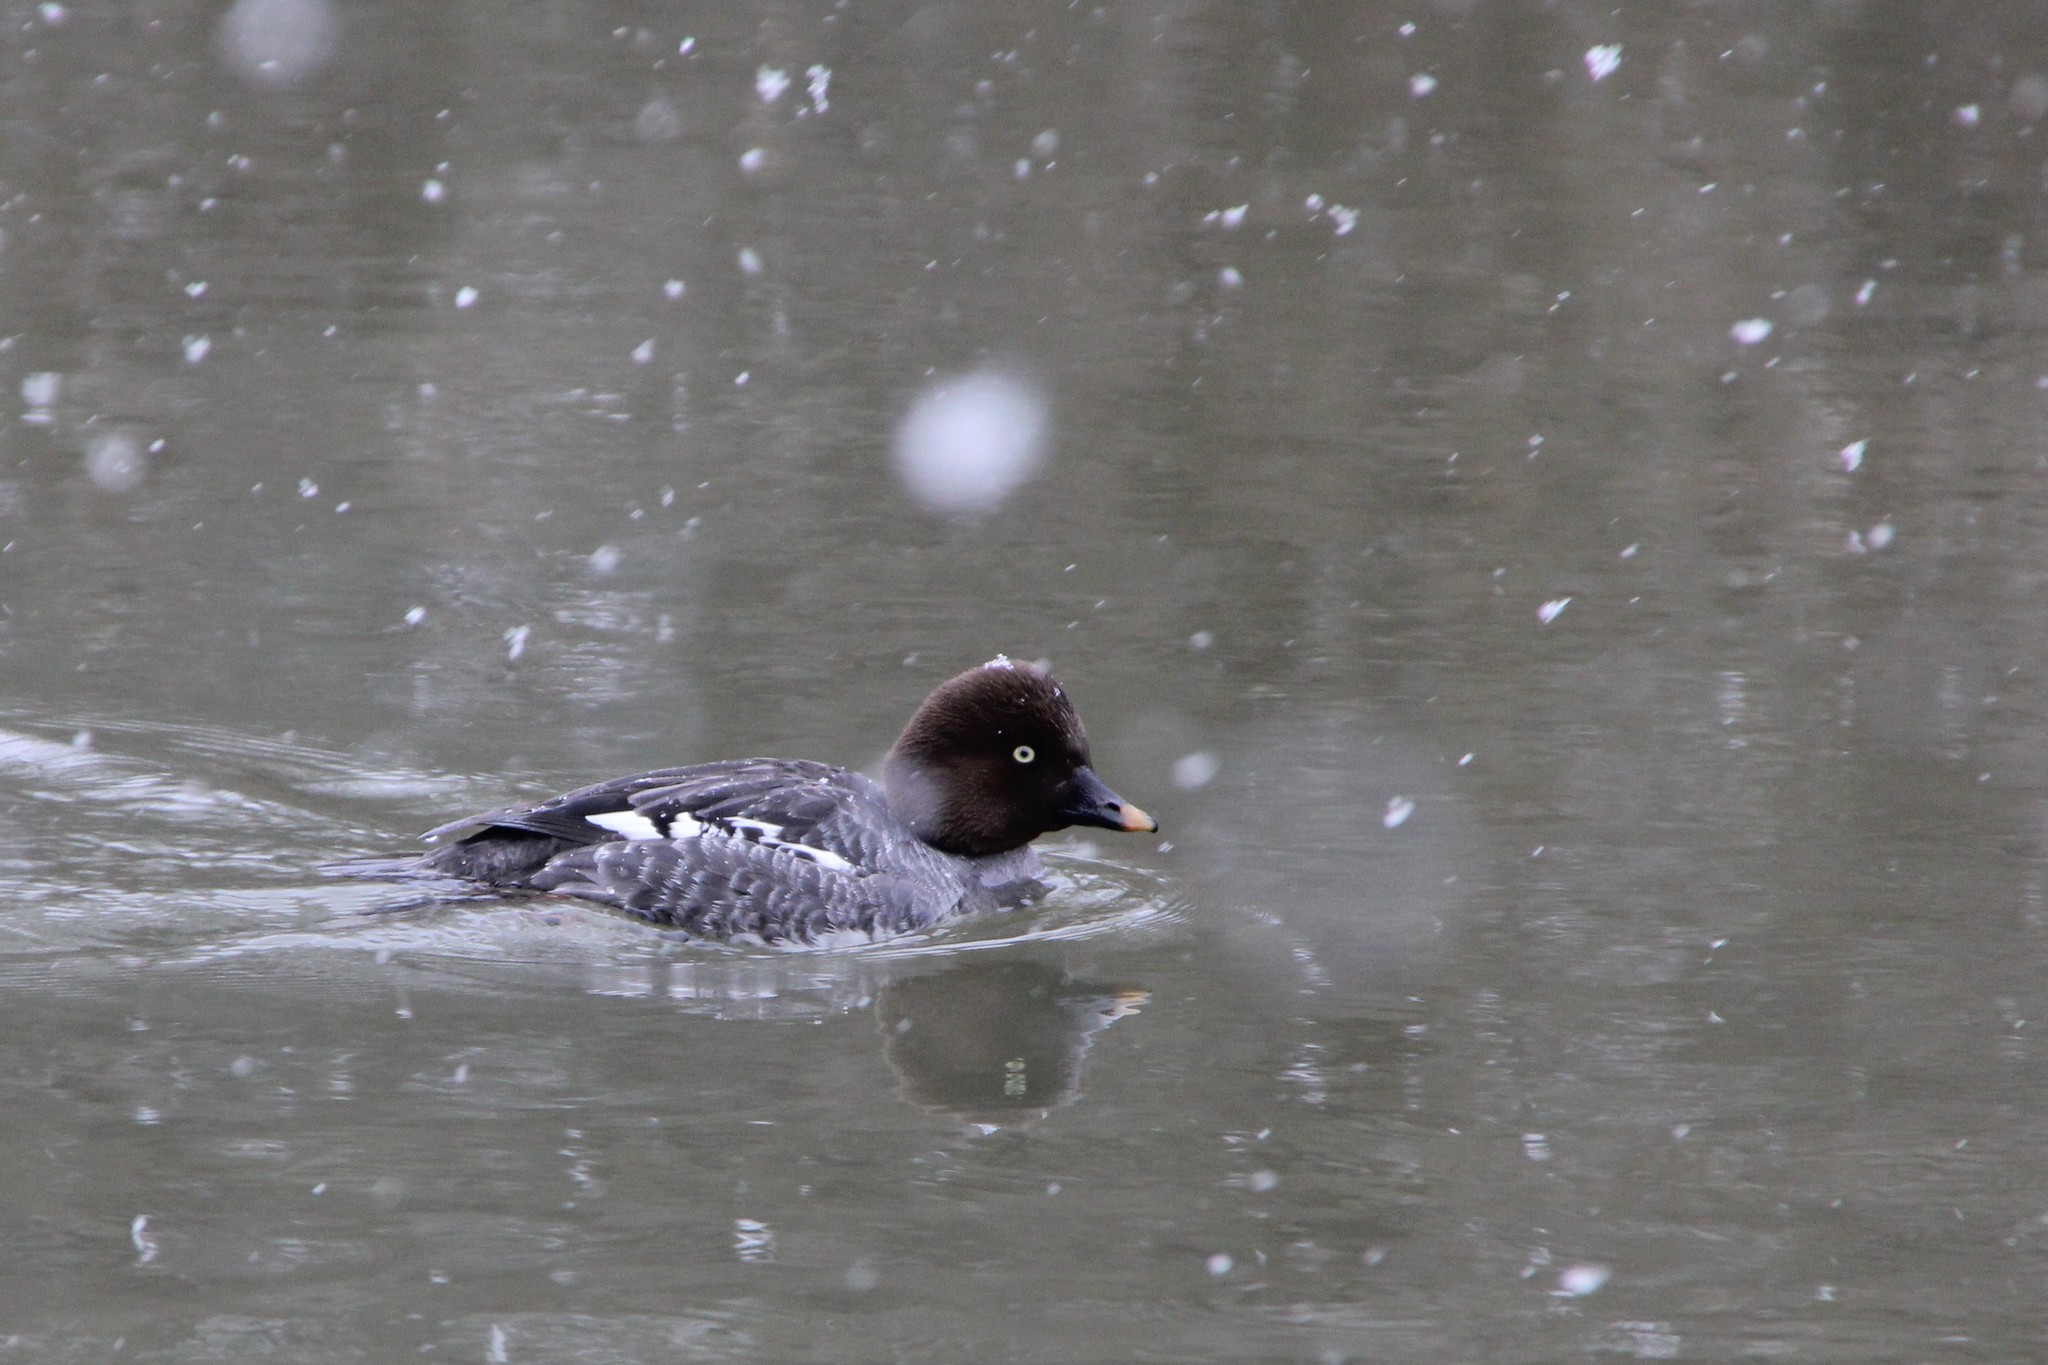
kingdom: Animalia
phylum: Chordata
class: Aves
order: Anseriformes
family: Anatidae
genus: Bucephala
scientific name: Bucephala clangula
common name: Common goldeneye
